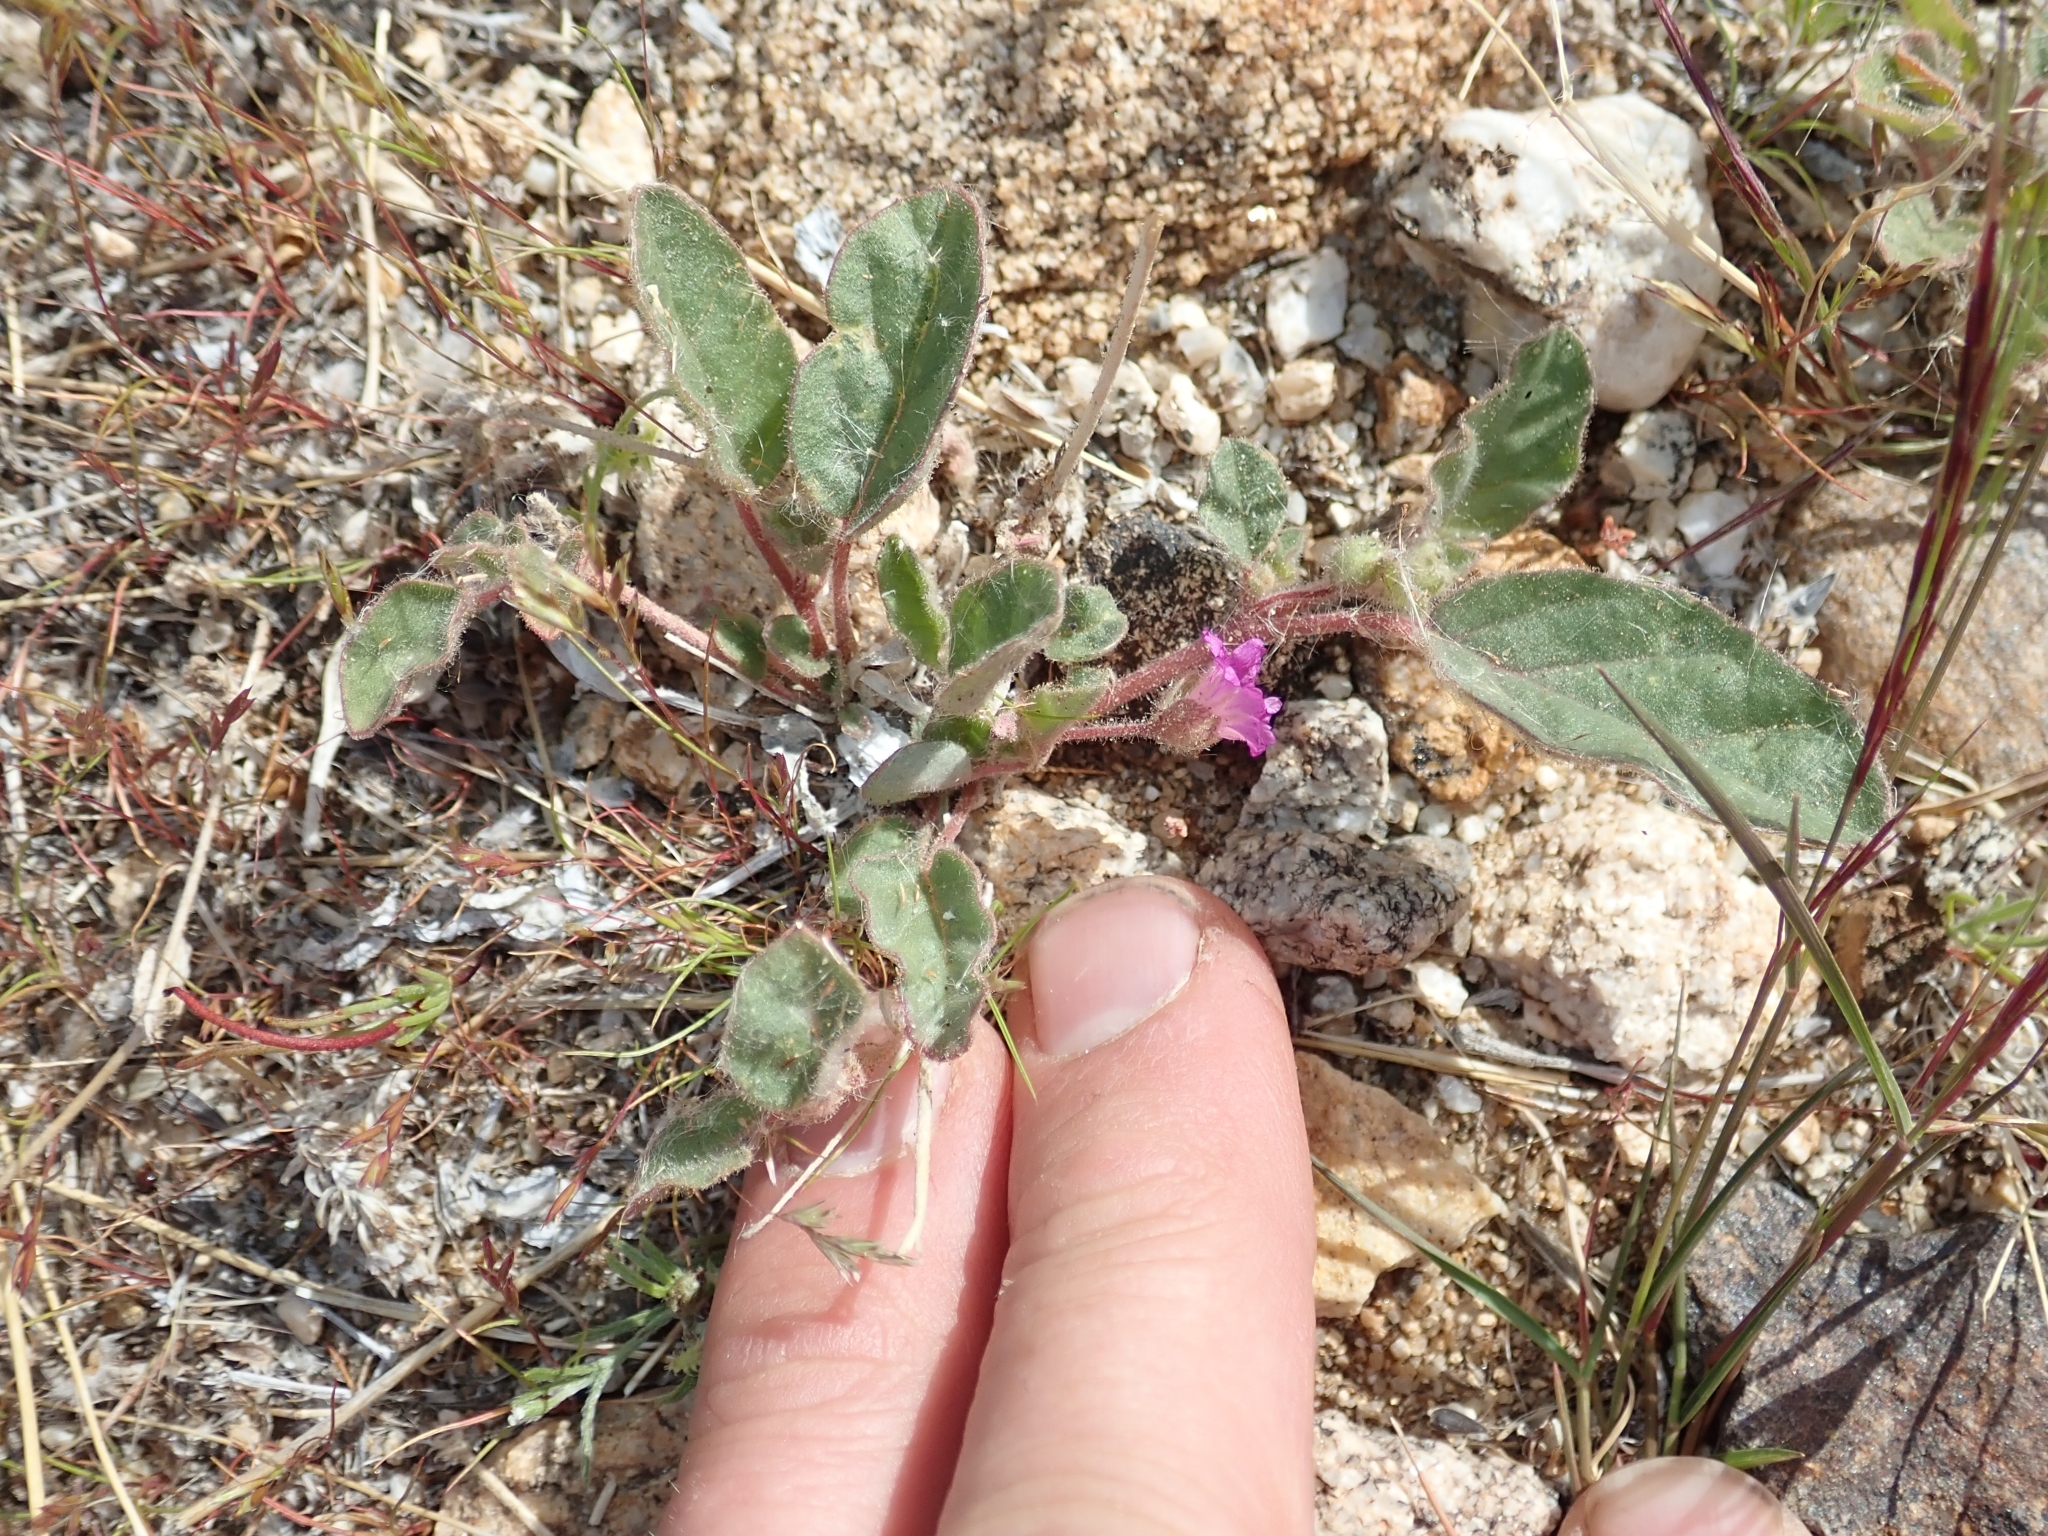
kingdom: Plantae
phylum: Tracheophyta
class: Magnoliopsida
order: Caryophyllales
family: Nyctaginaceae
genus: Allionia
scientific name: Allionia incarnata
